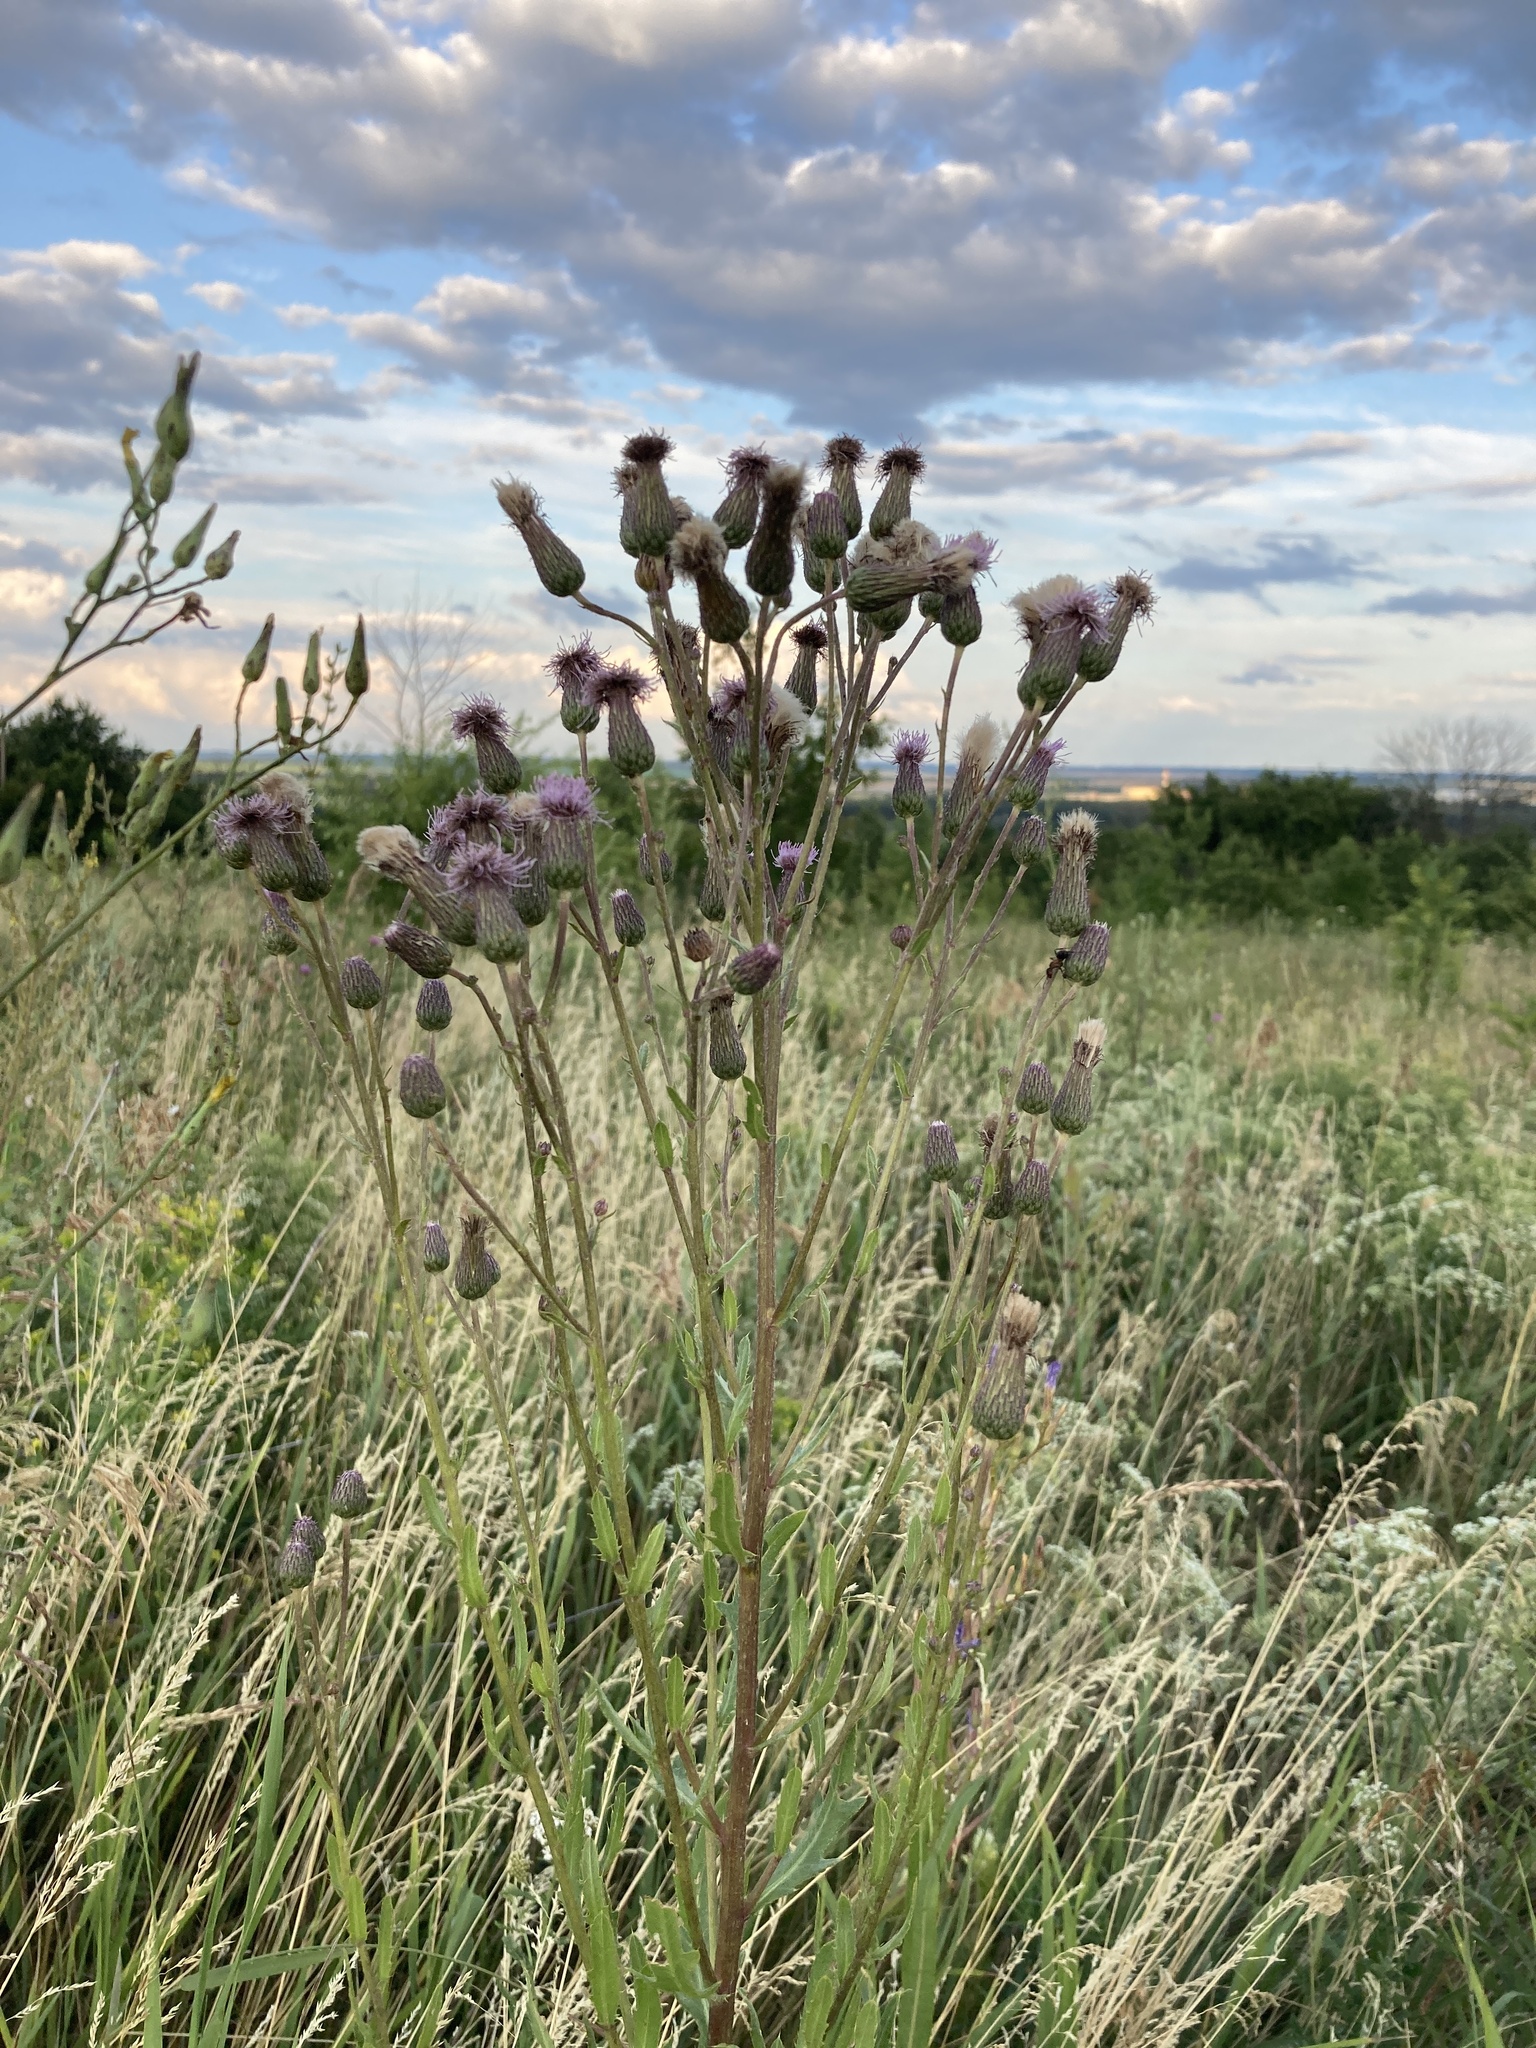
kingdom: Plantae
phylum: Tracheophyta
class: Magnoliopsida
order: Asterales
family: Asteraceae
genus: Cirsium
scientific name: Cirsium arvense
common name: Creeping thistle
